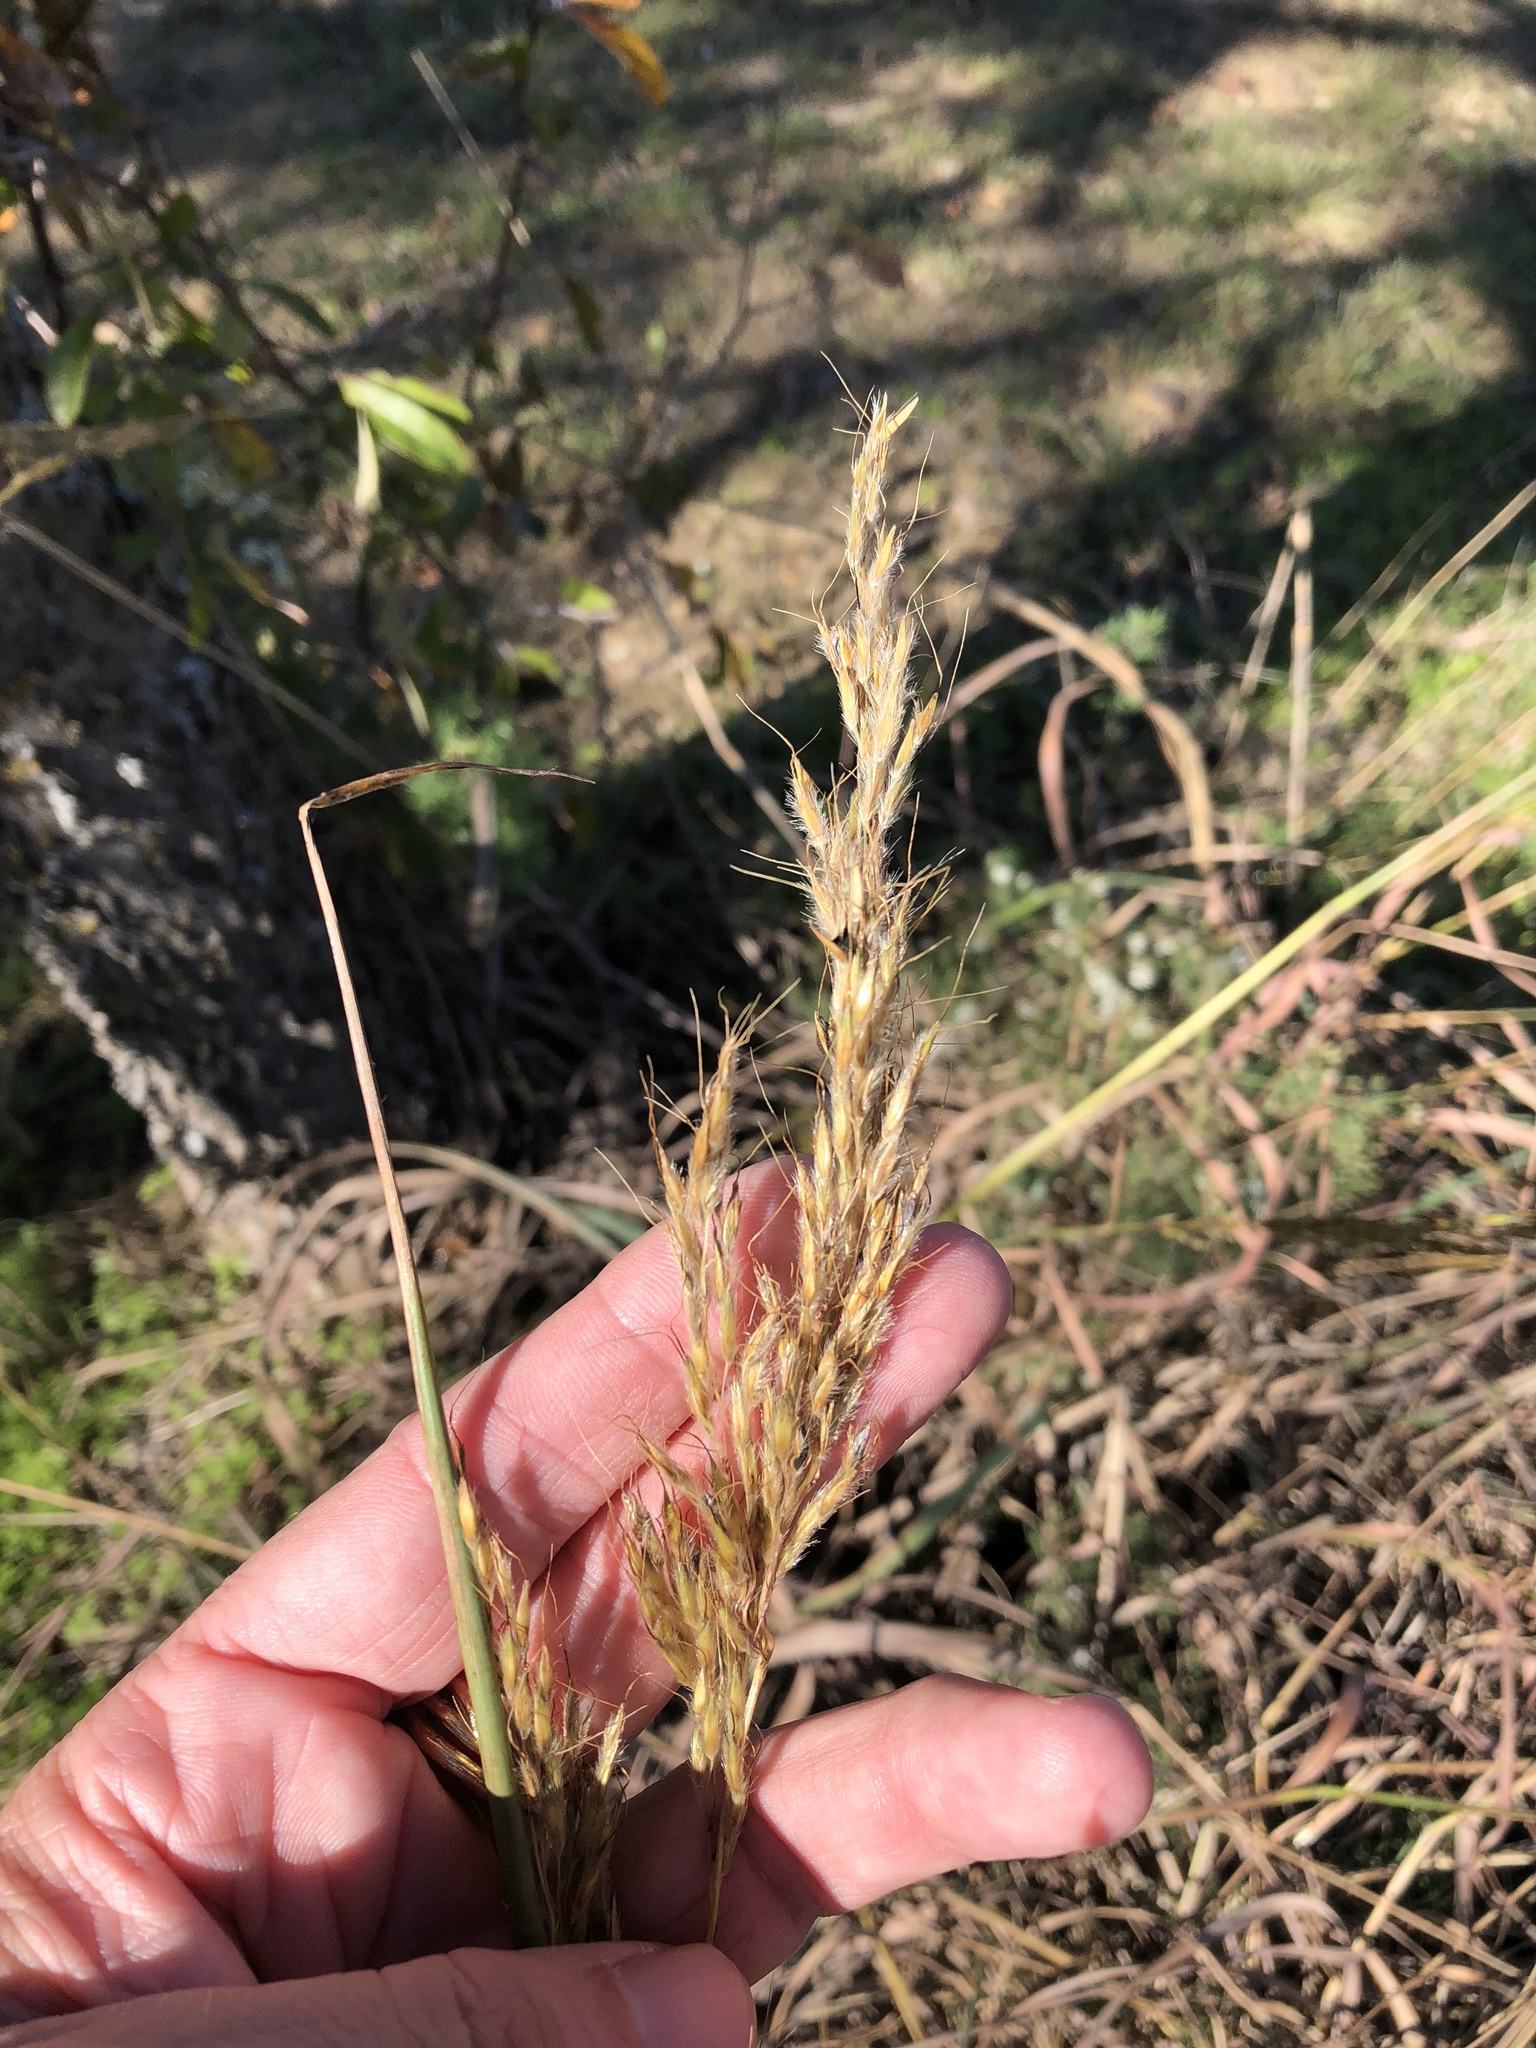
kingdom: Plantae
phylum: Tracheophyta
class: Liliopsida
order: Poales
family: Poaceae
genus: Sorghastrum
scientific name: Sorghastrum nutans
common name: Indian grass
